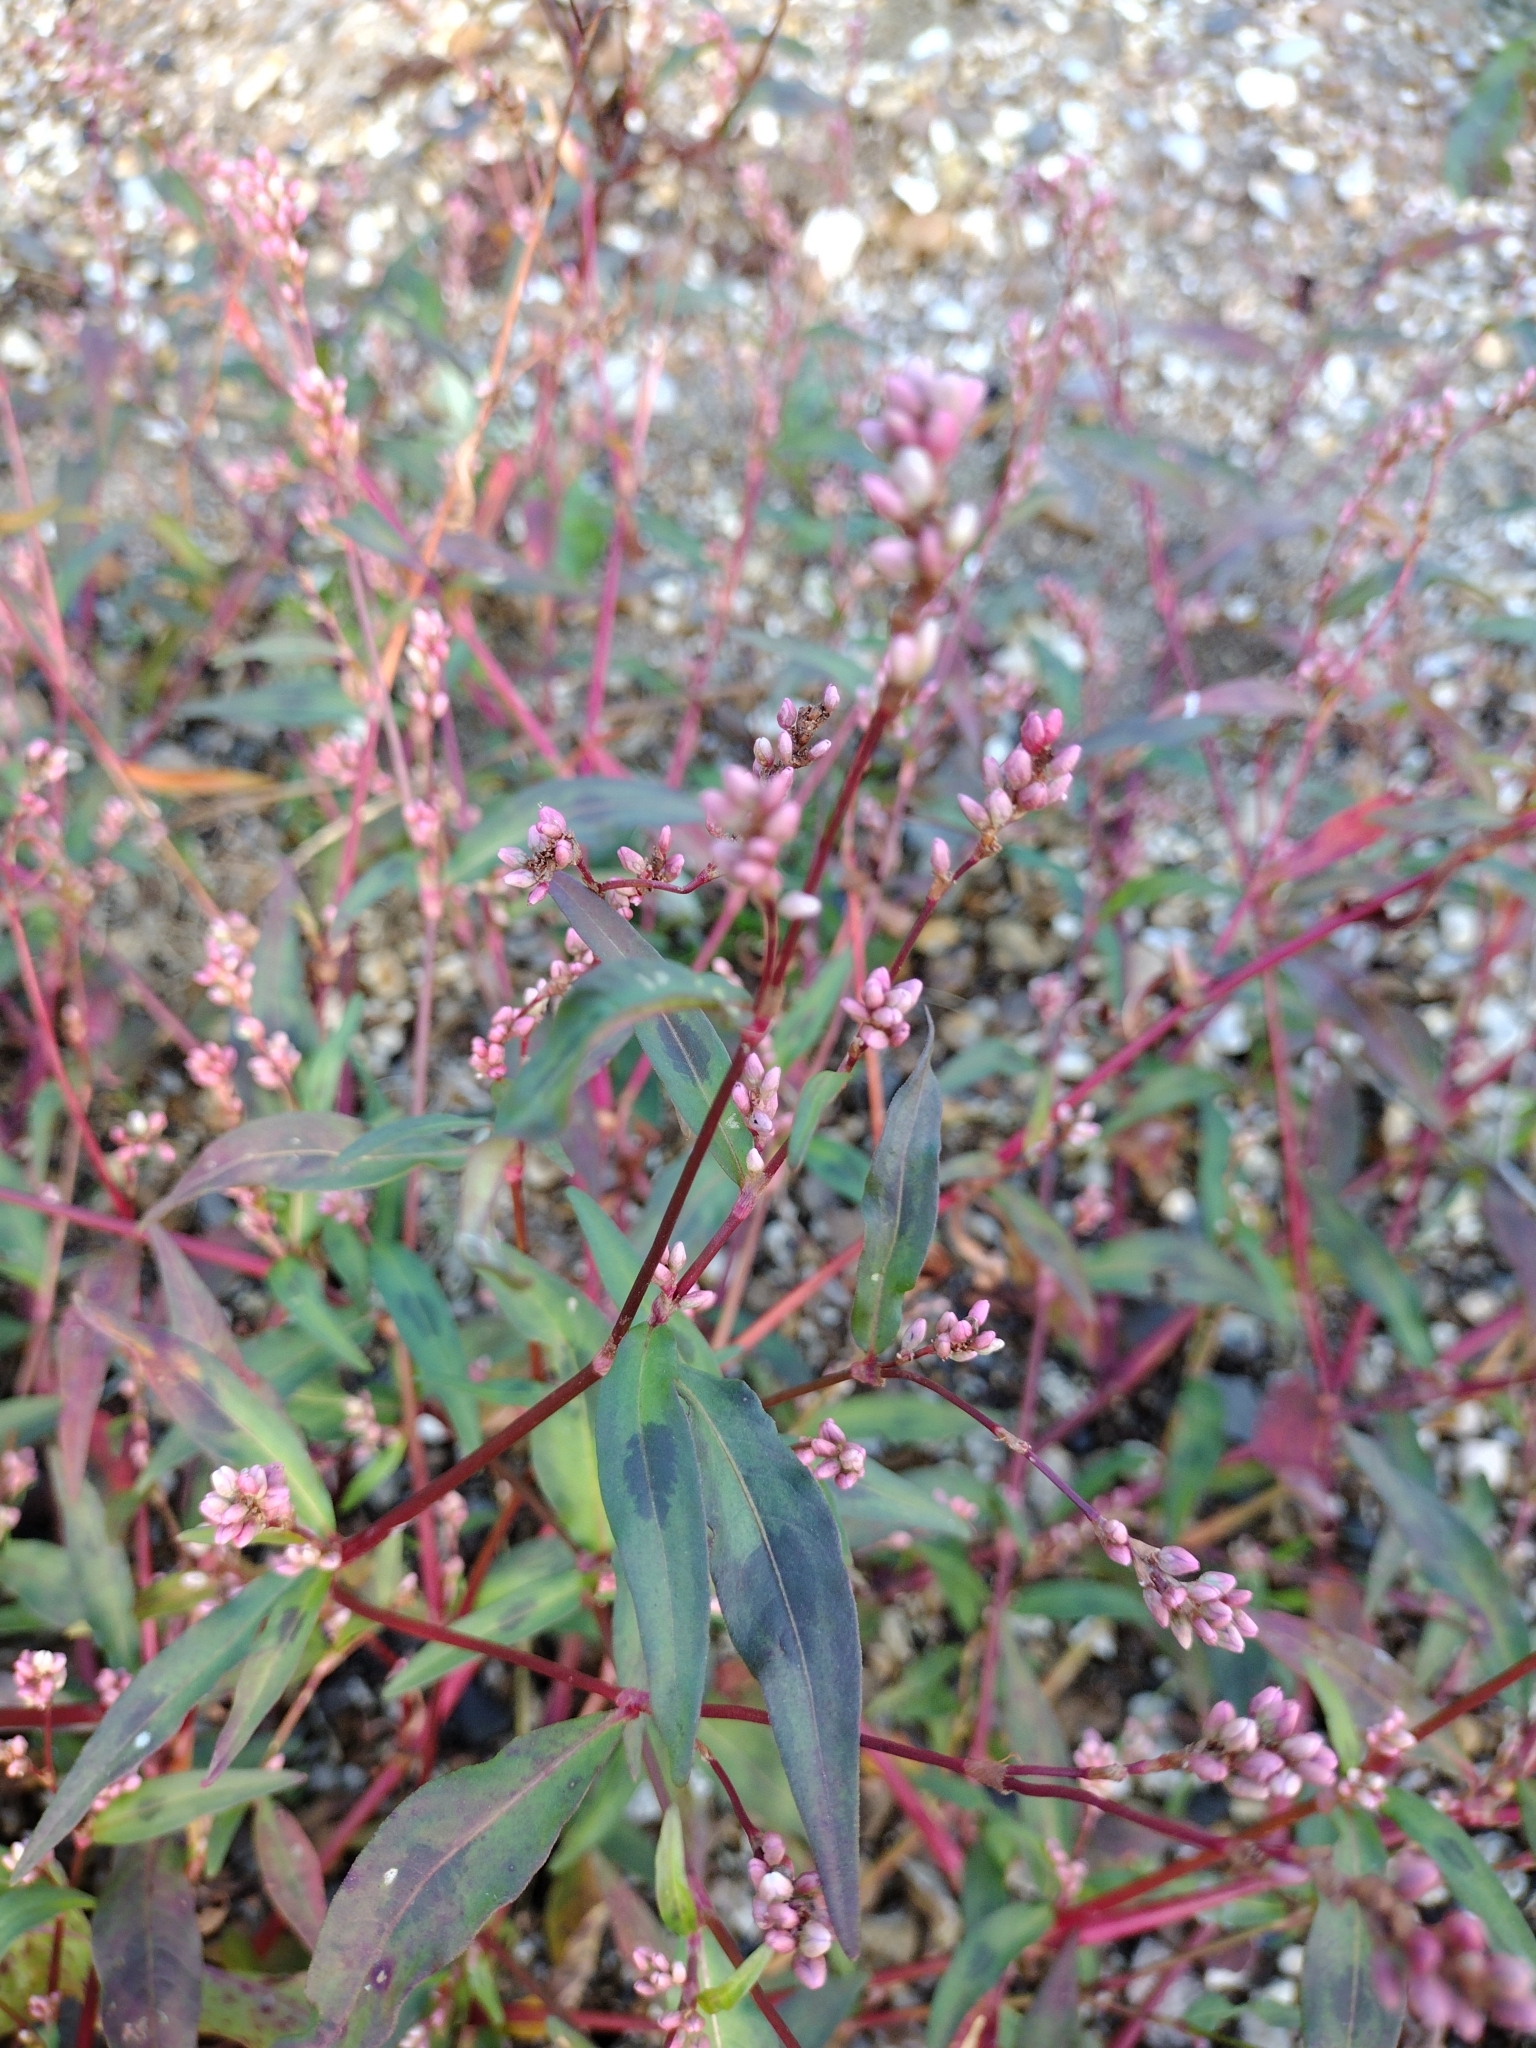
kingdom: Plantae
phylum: Tracheophyta
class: Magnoliopsida
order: Caryophyllales
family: Polygonaceae
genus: Persicaria
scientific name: Persicaria maculosa
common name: Redshank
